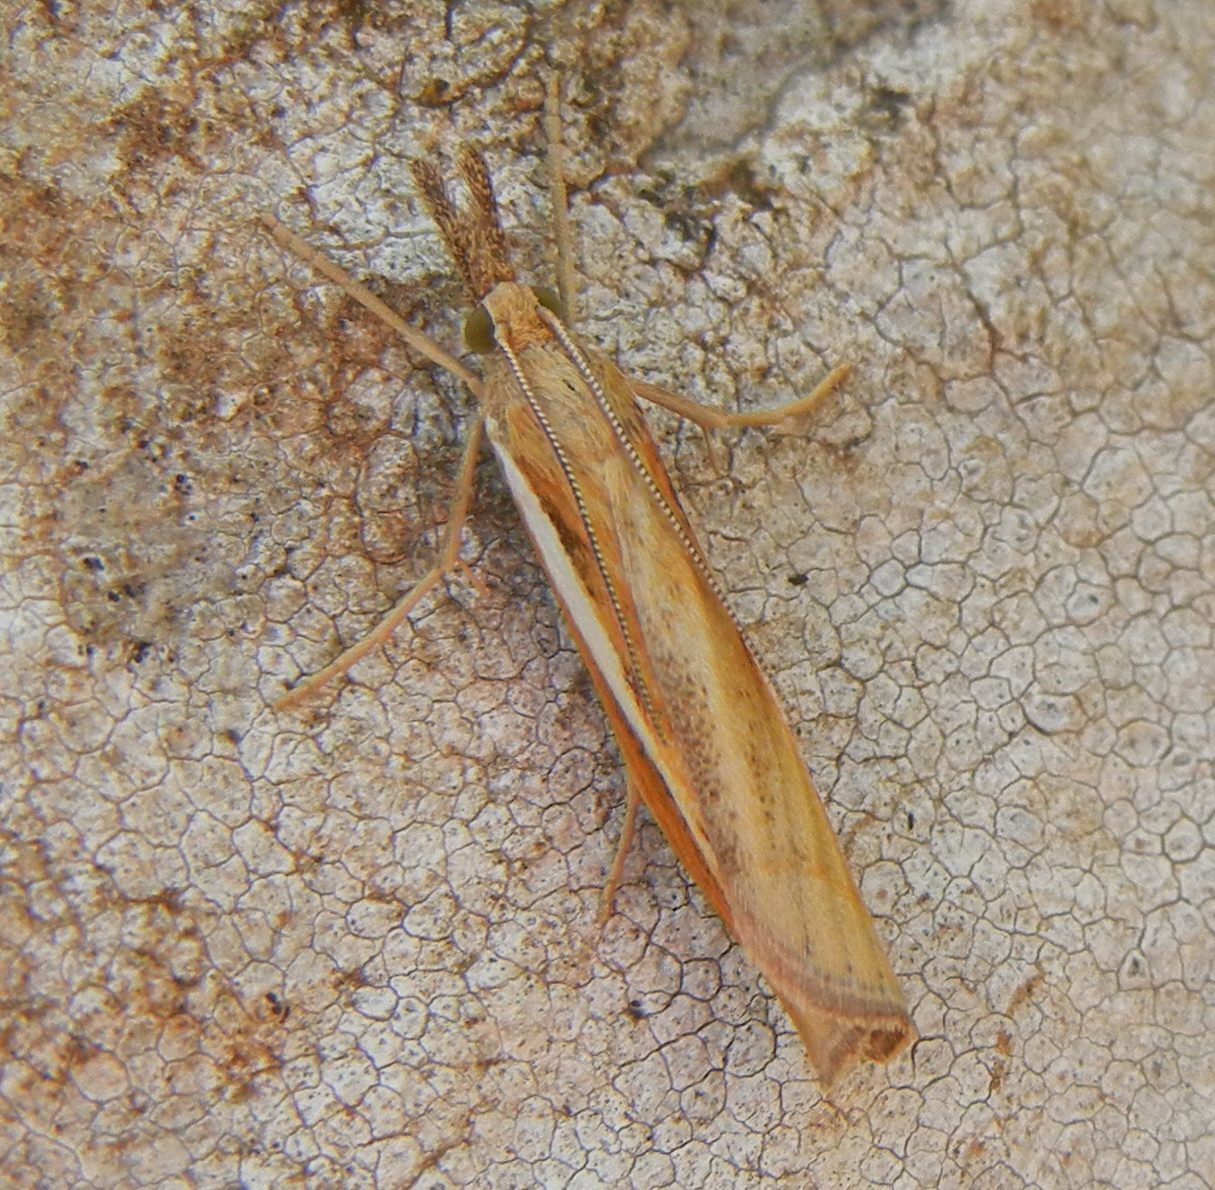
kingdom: Animalia
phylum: Arthropoda
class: Insecta
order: Lepidoptera
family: Crambidae
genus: Agriphila
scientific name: Agriphila tristellus
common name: Common grass-veneer
